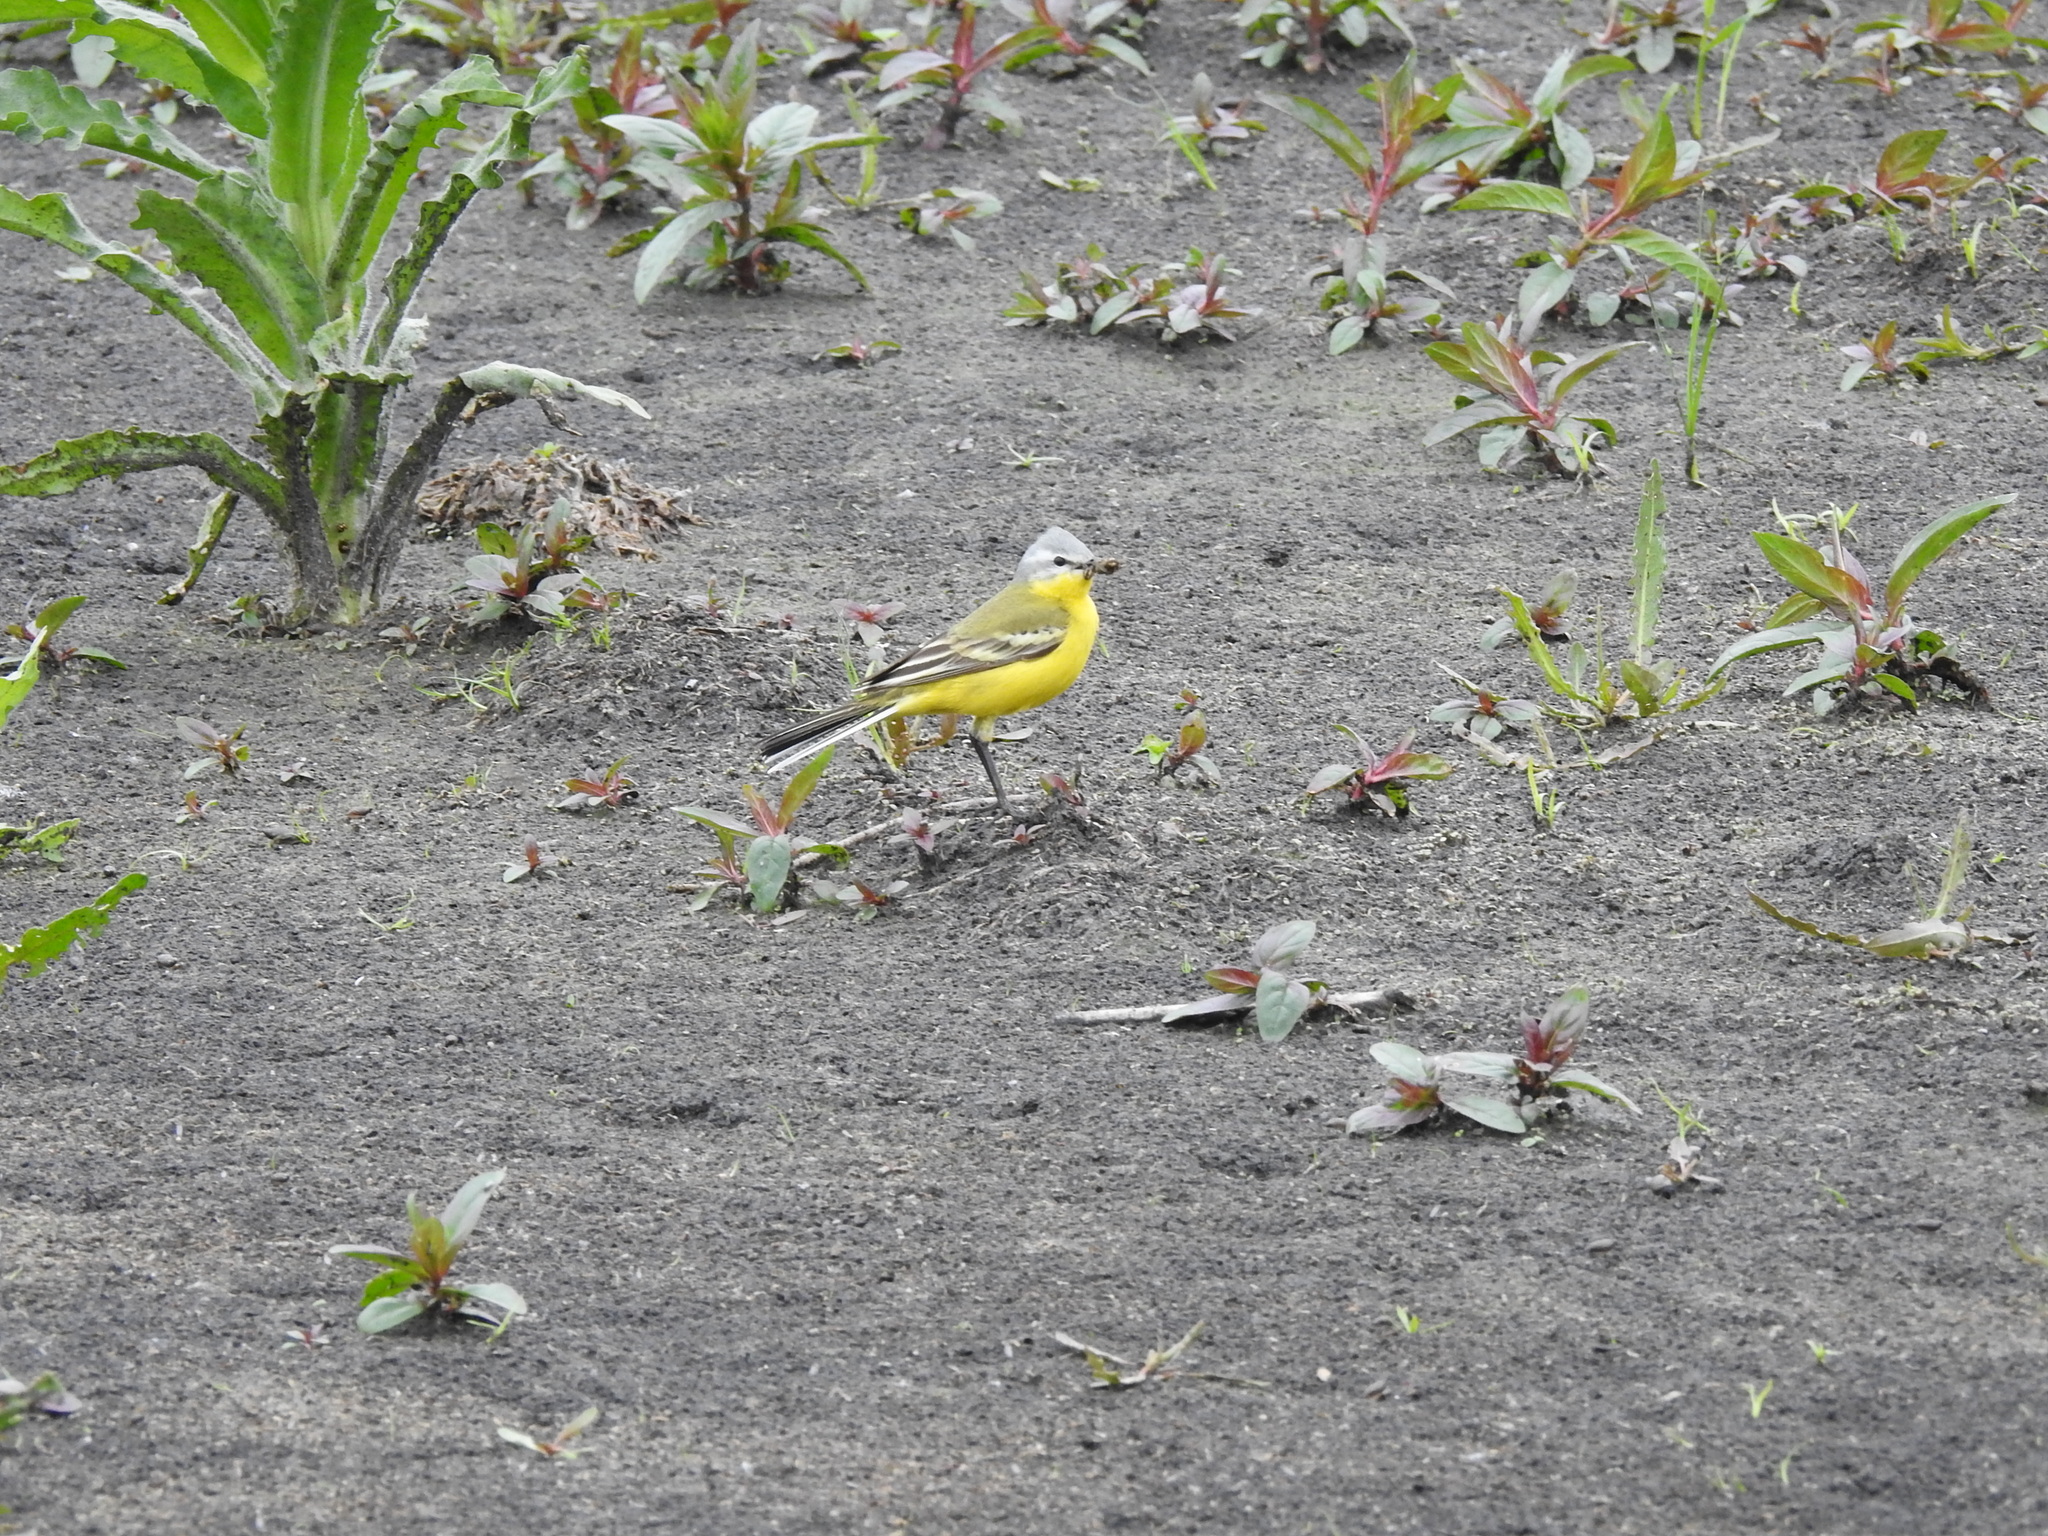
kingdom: Animalia
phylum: Chordata
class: Aves
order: Passeriformes
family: Motacillidae
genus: Motacilla
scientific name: Motacilla flava
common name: Western yellow wagtail
